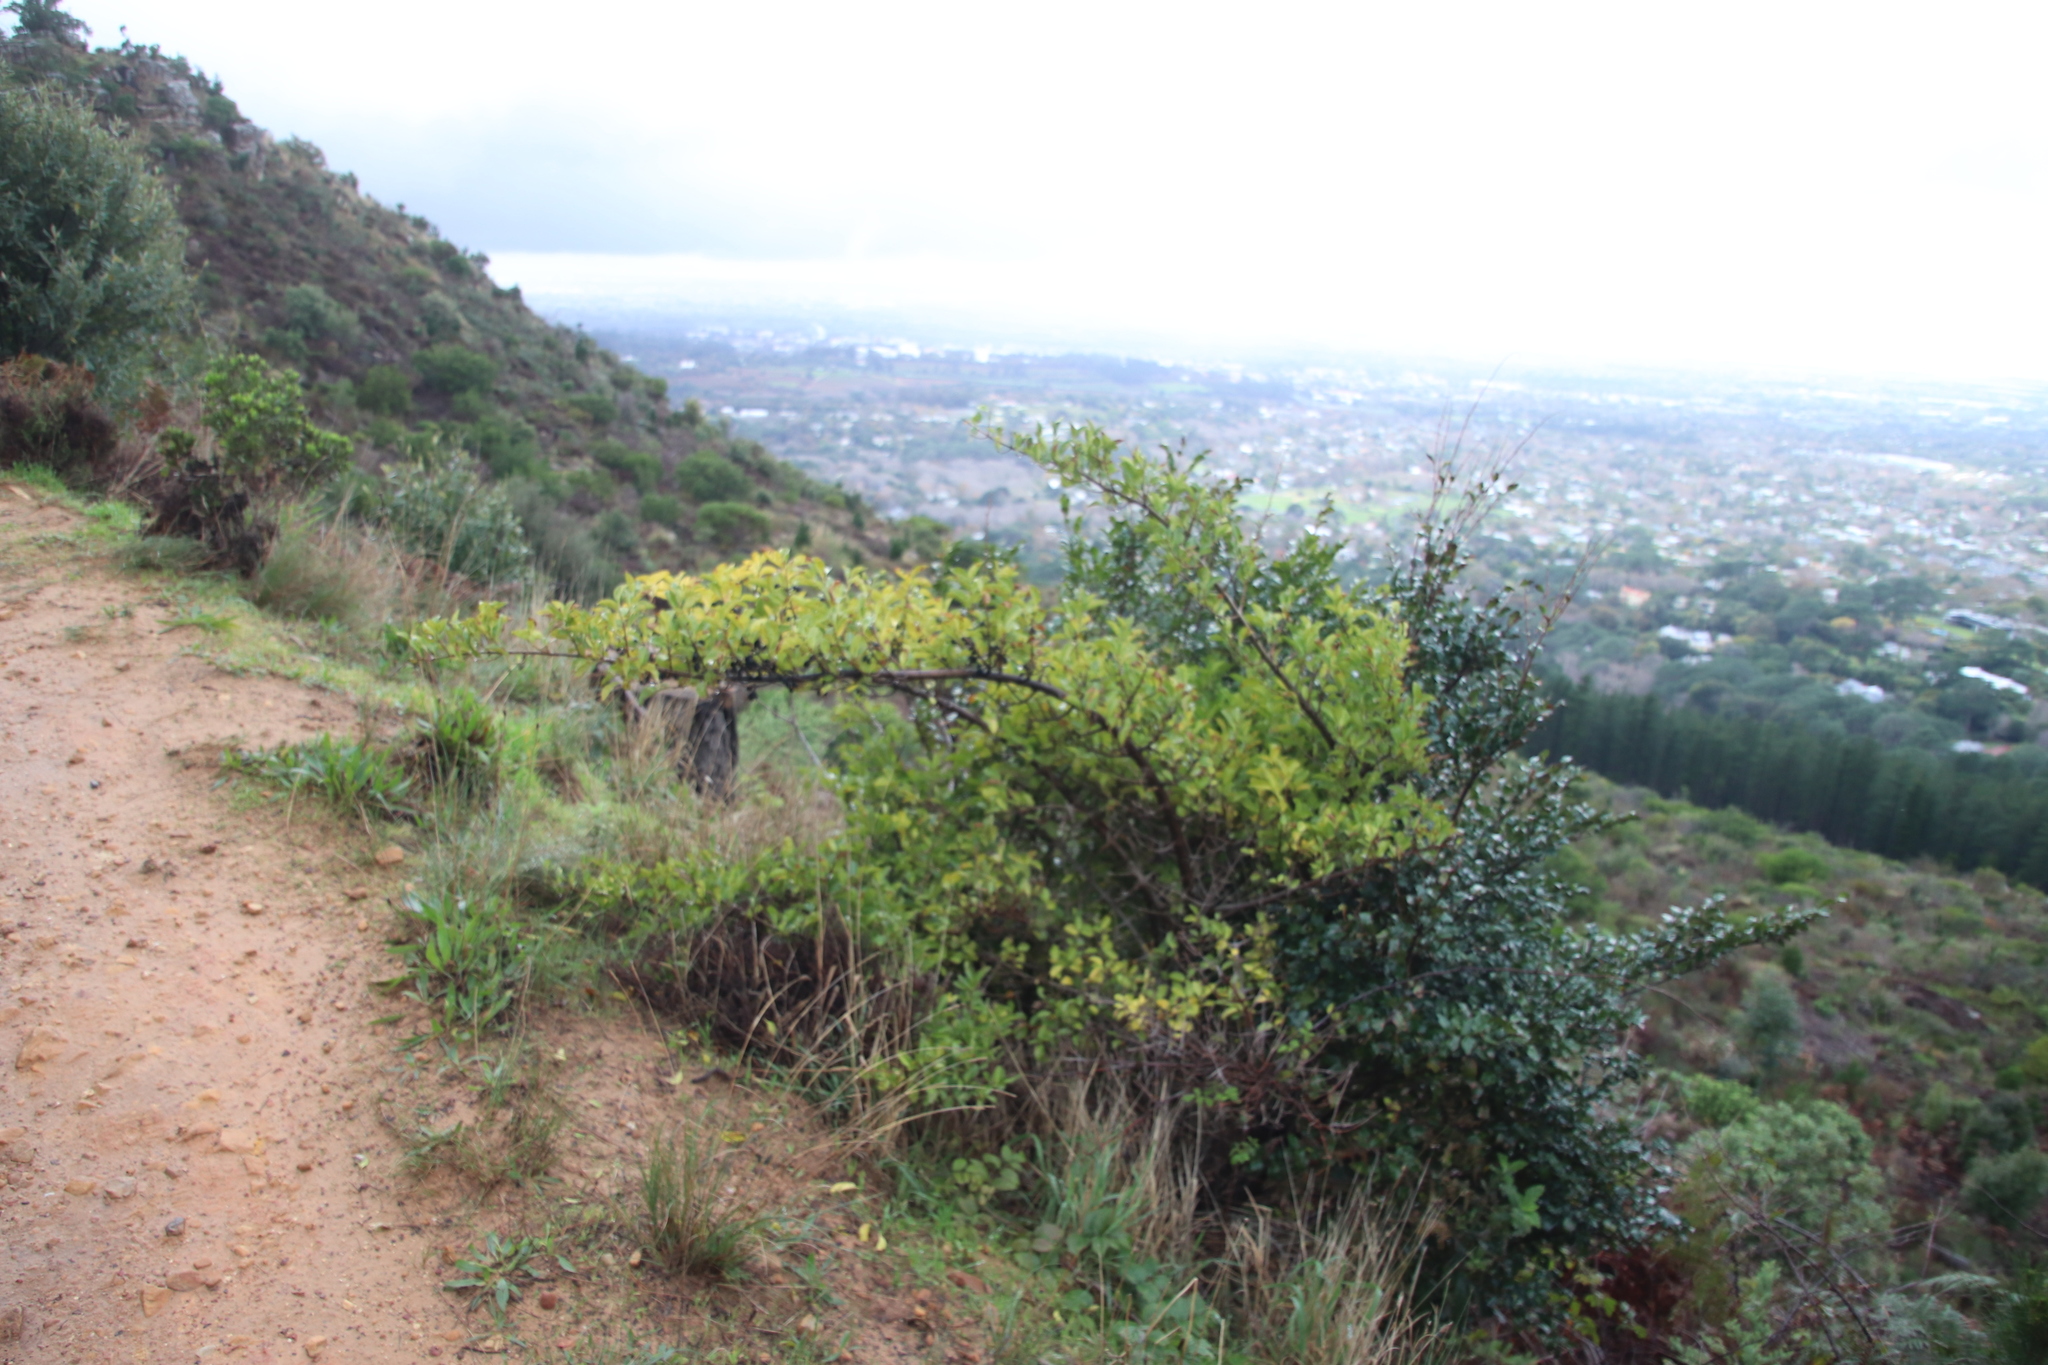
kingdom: Plantae
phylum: Tracheophyta
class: Magnoliopsida
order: Gentianales
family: Rubiaceae
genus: Canthium
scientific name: Canthium inerme
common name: Unarmed turkey-berry
